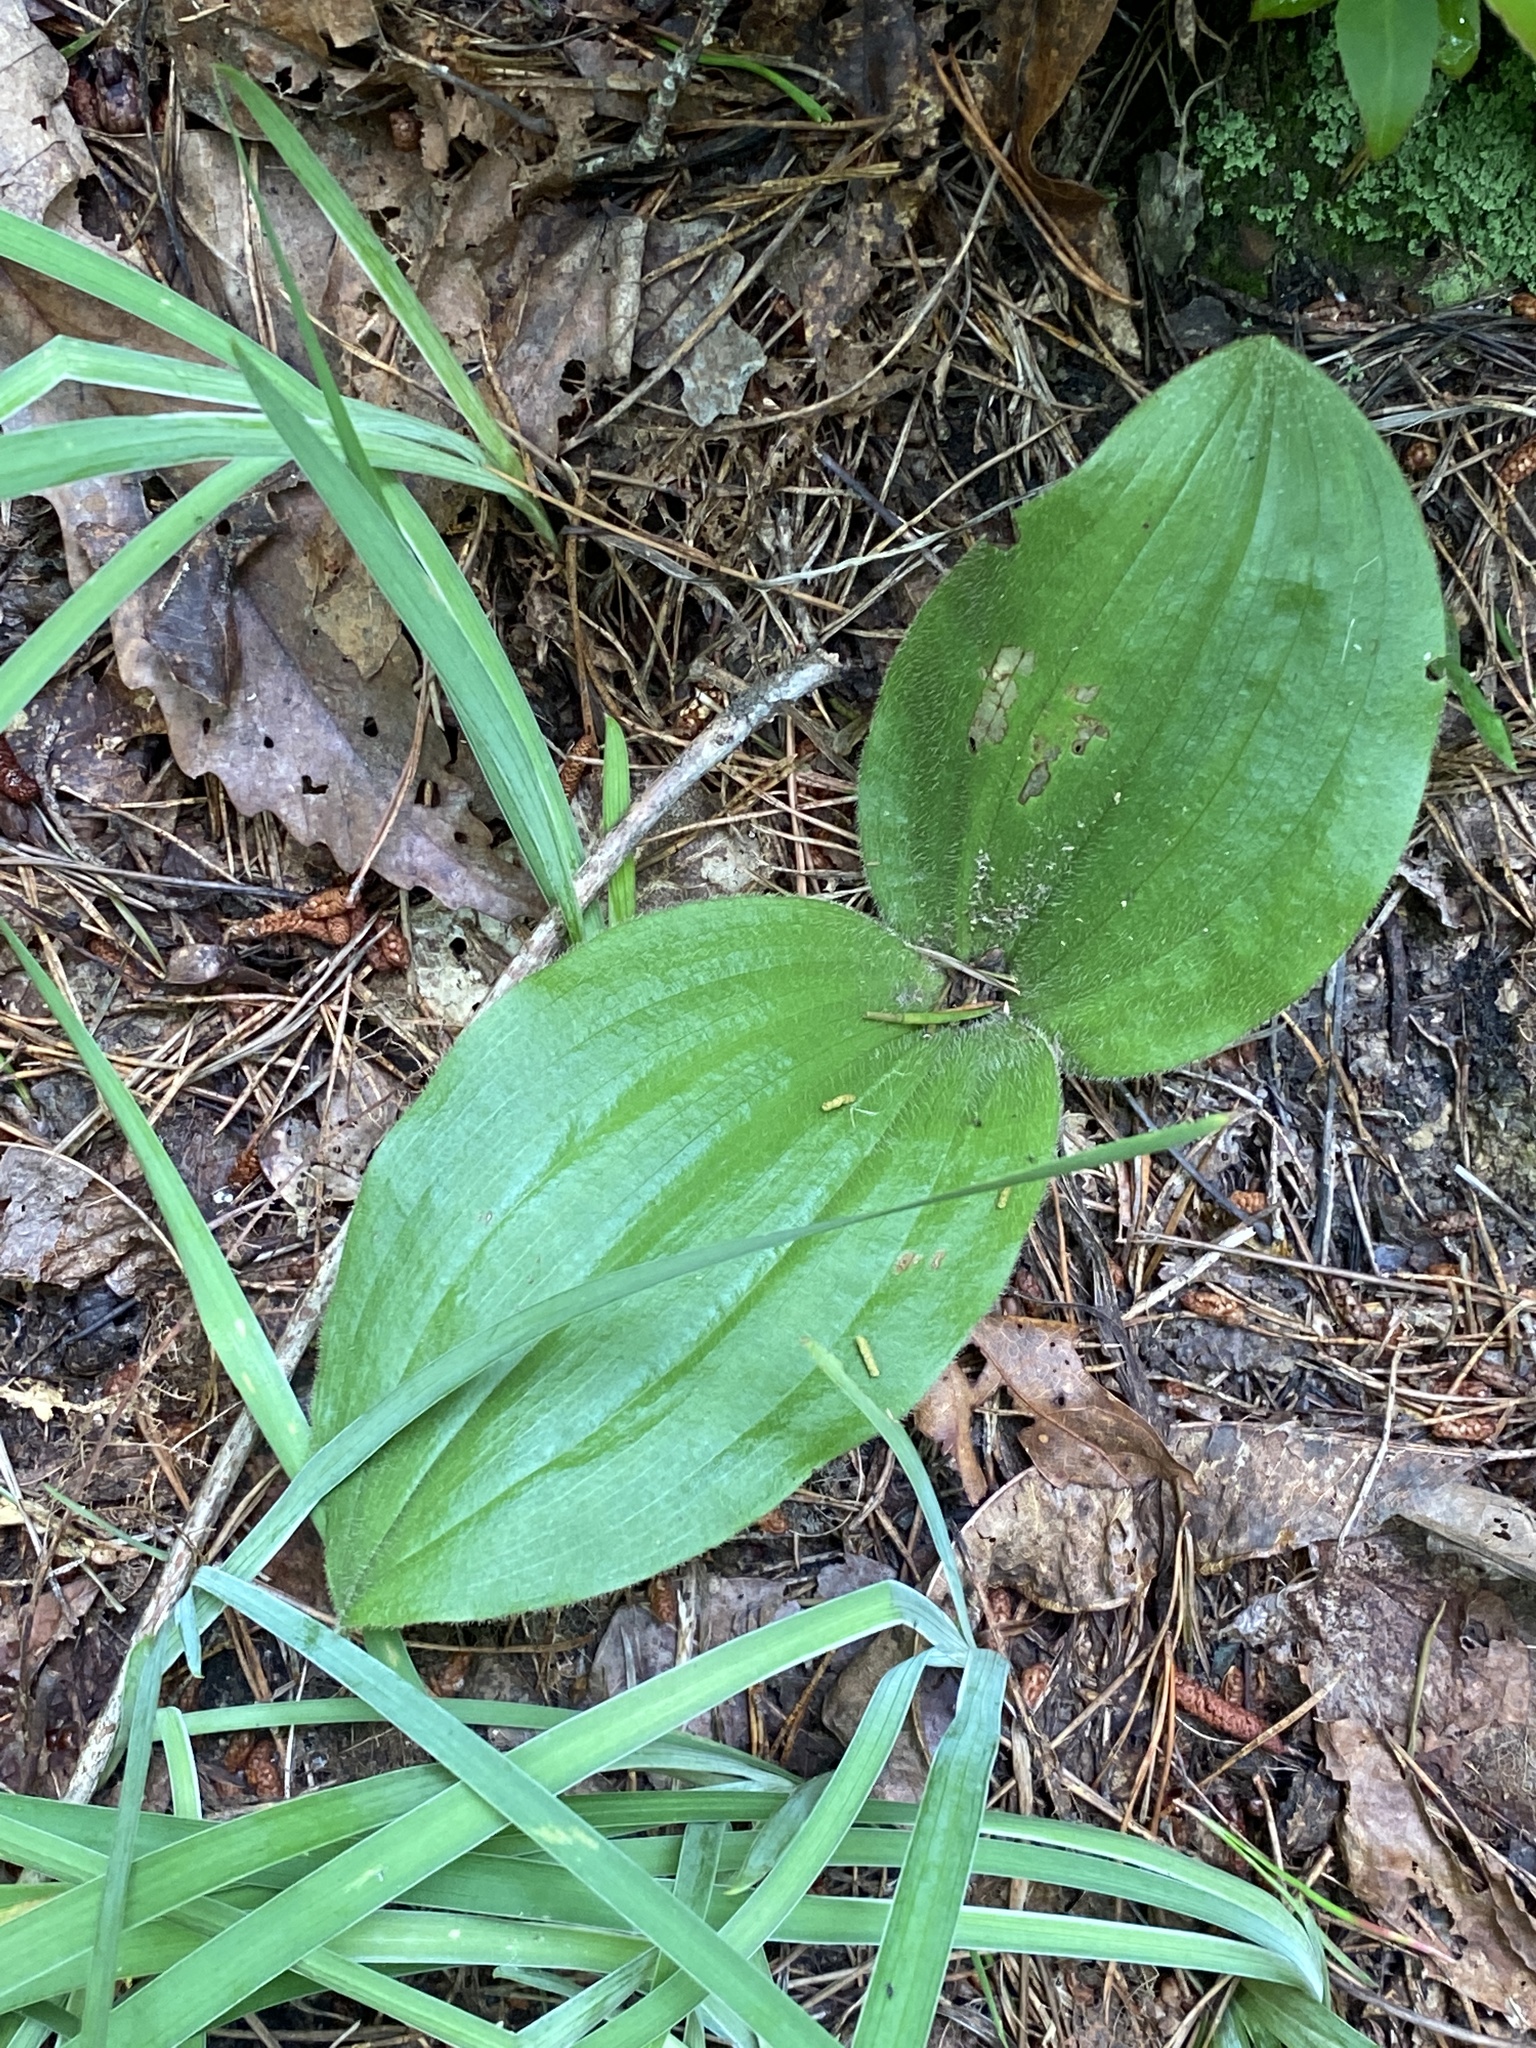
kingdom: Plantae
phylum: Tracheophyta
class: Liliopsida
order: Asparagales
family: Orchidaceae
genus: Cypripedium
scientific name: Cypripedium acaule
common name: Pink lady's-slipper
